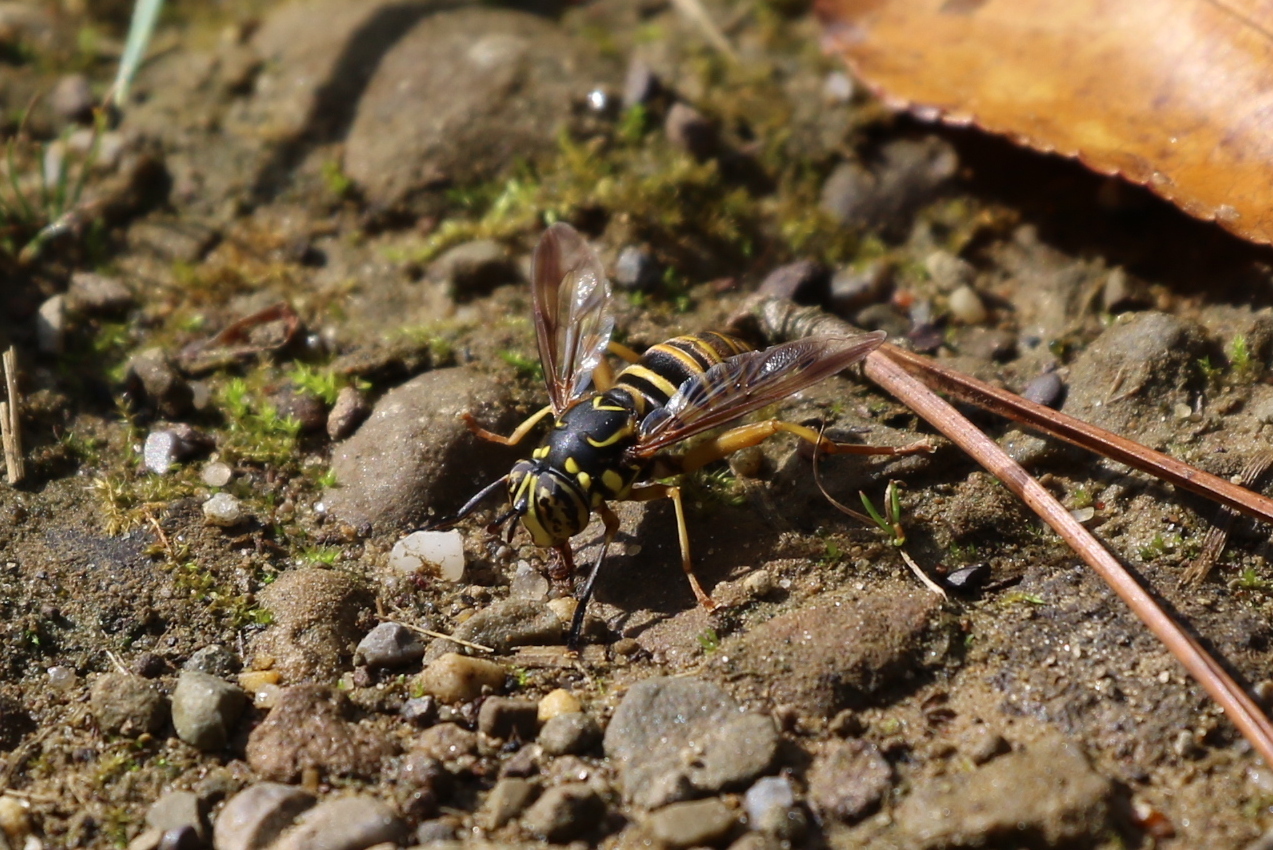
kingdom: Animalia
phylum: Arthropoda
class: Insecta
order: Diptera
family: Syrphidae
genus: Spilomyia
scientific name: Spilomyia longicornis
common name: Eastern hornet fly
